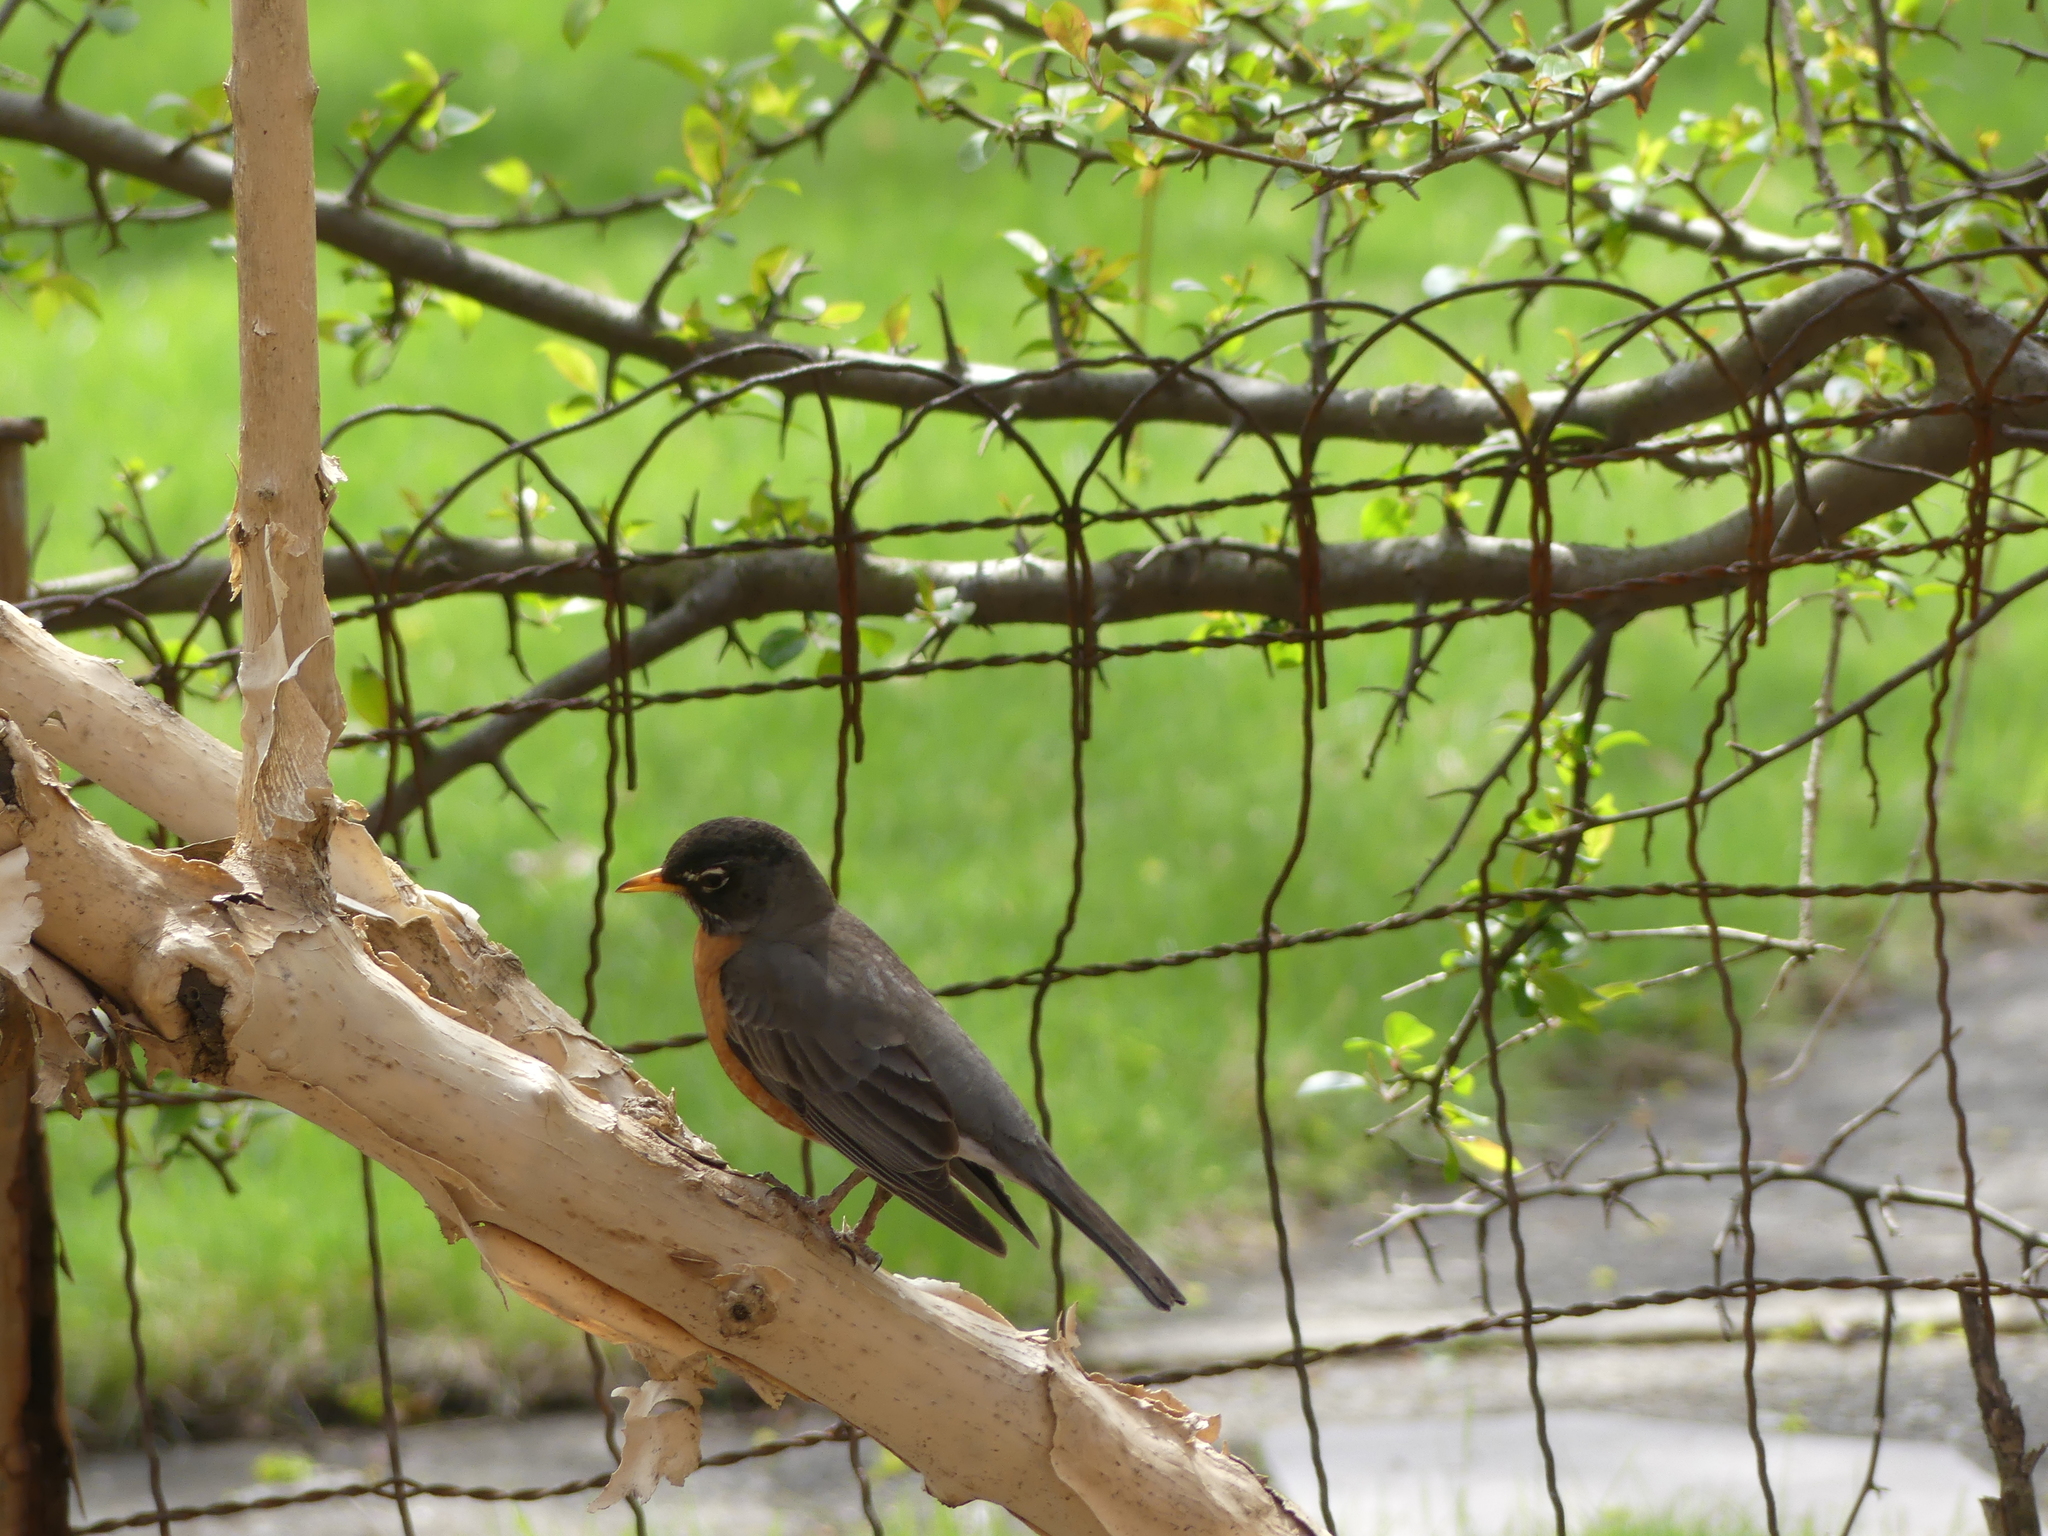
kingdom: Animalia
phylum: Chordata
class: Aves
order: Passeriformes
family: Turdidae
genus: Turdus
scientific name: Turdus migratorius
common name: American robin
